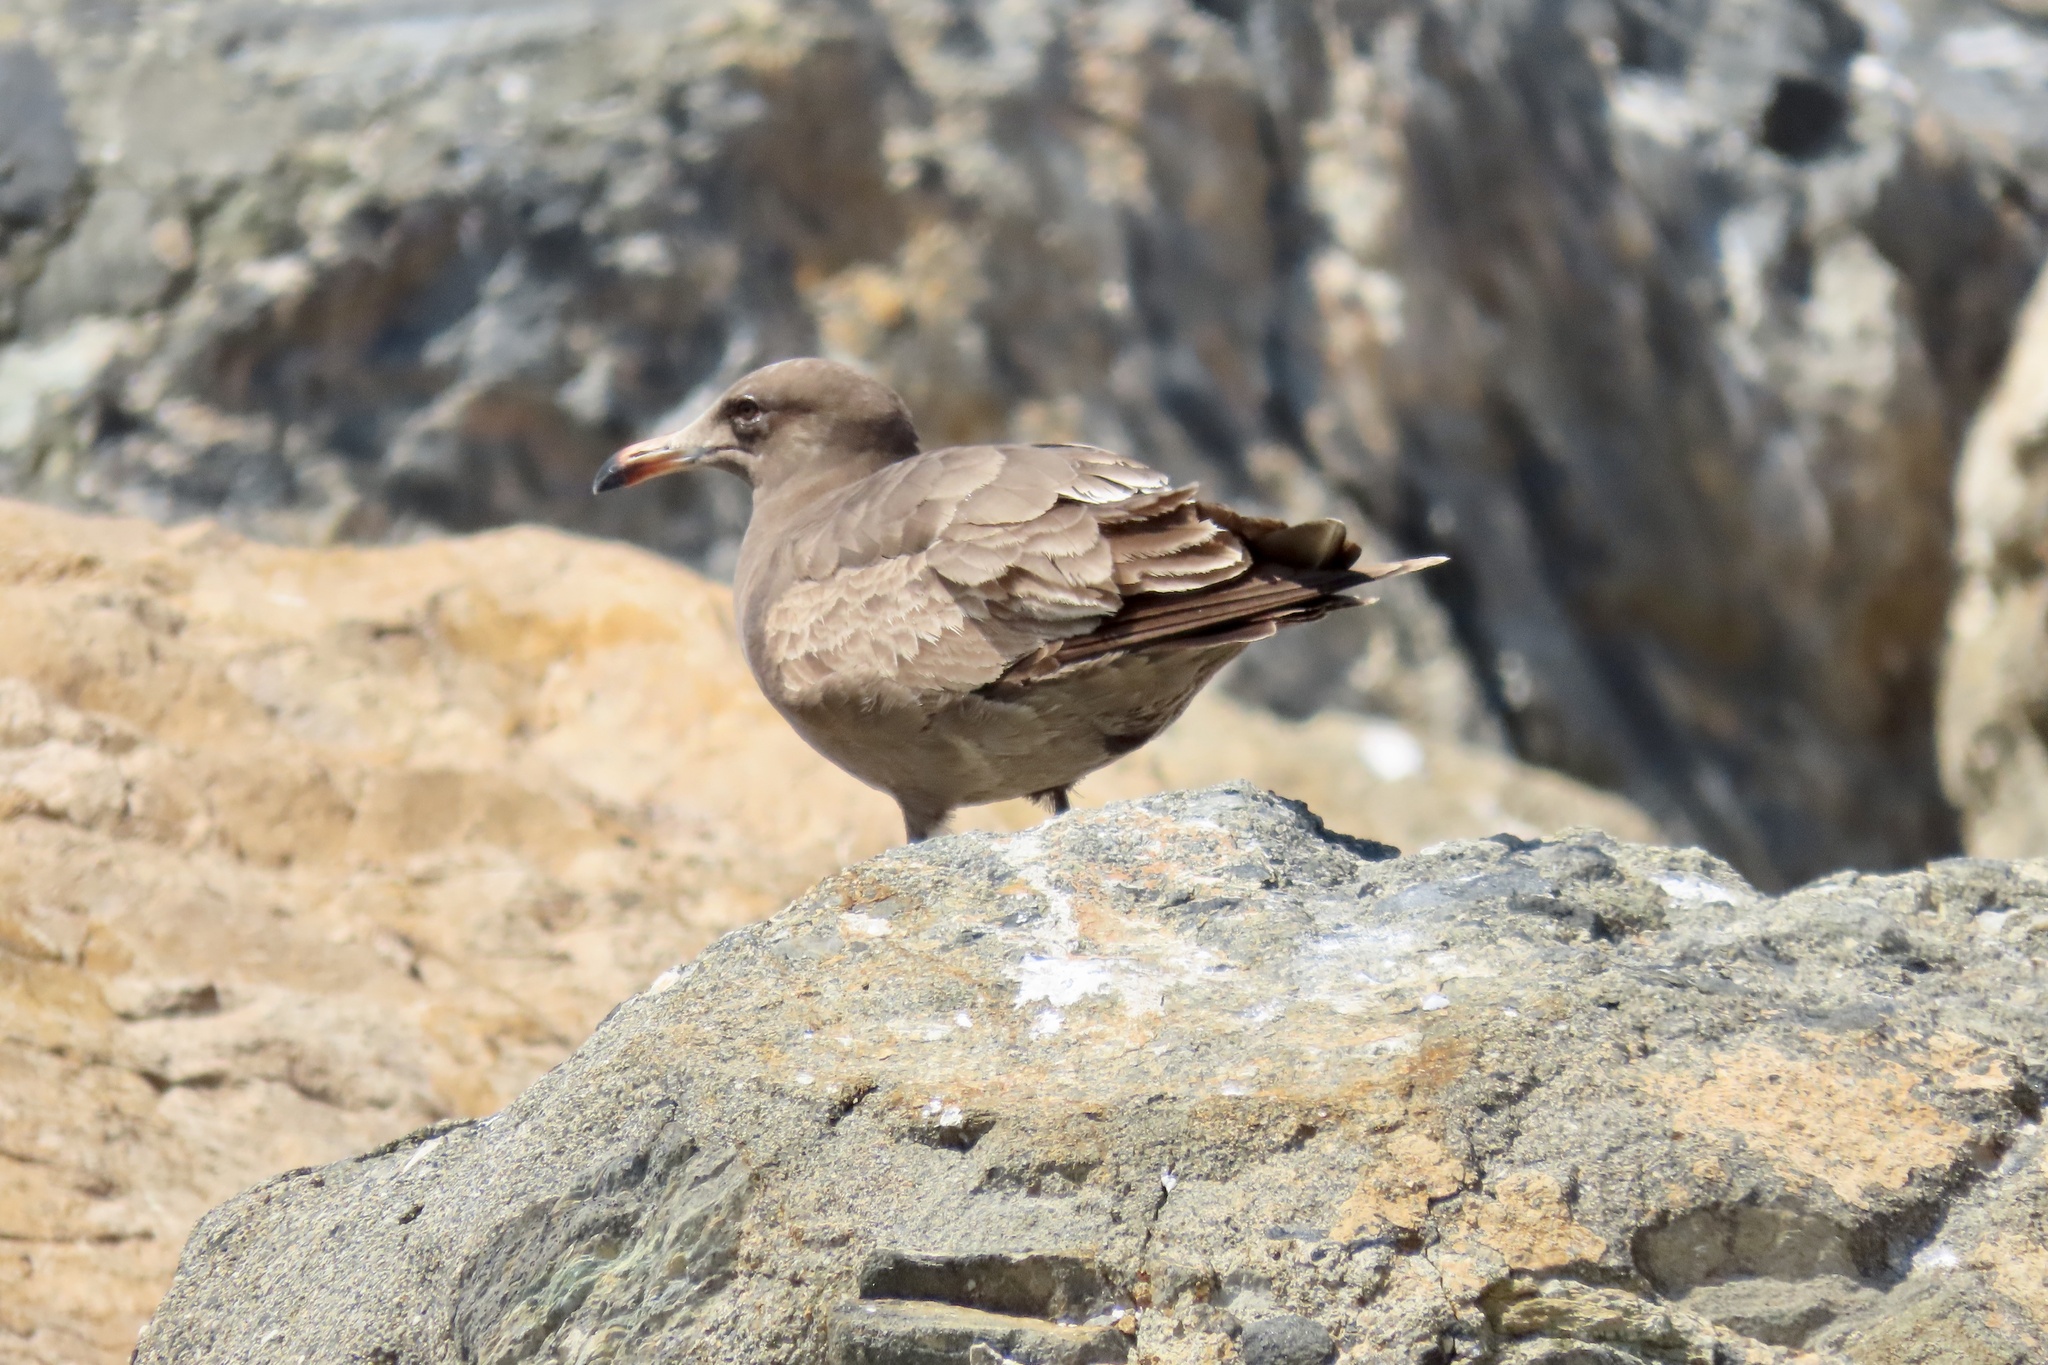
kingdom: Animalia
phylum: Chordata
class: Aves
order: Charadriiformes
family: Laridae
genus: Larus
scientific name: Larus heermanni
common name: Heermann's gull
